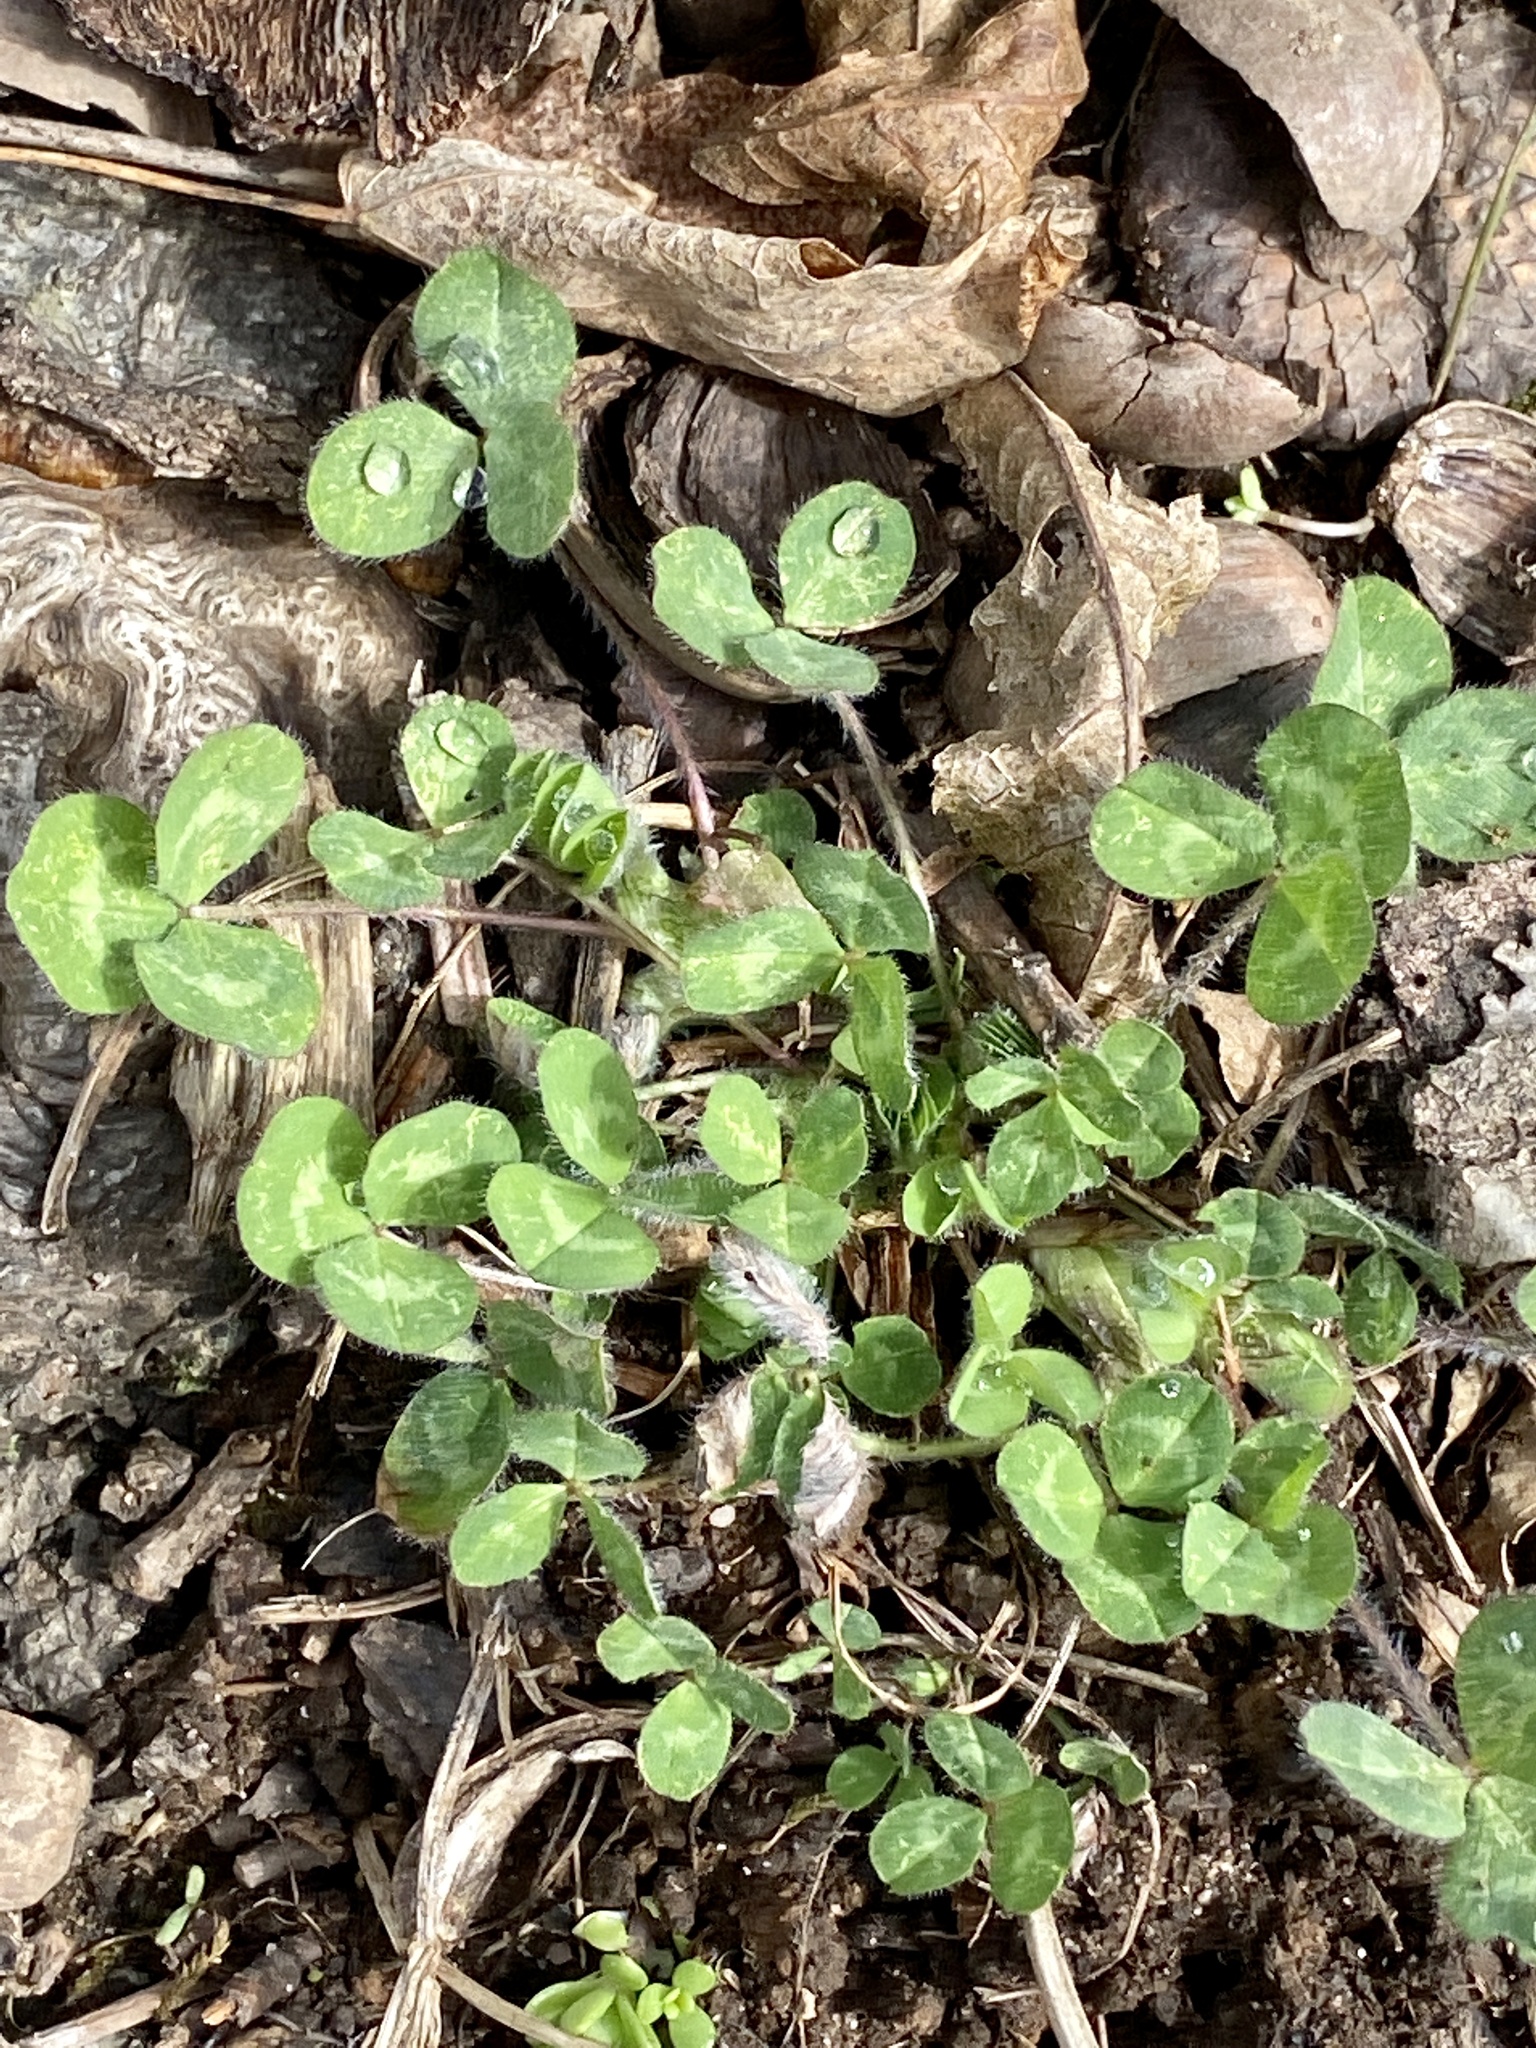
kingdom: Plantae
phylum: Tracheophyta
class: Magnoliopsida
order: Fabales
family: Fabaceae
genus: Trifolium
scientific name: Trifolium pratense
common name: Red clover
